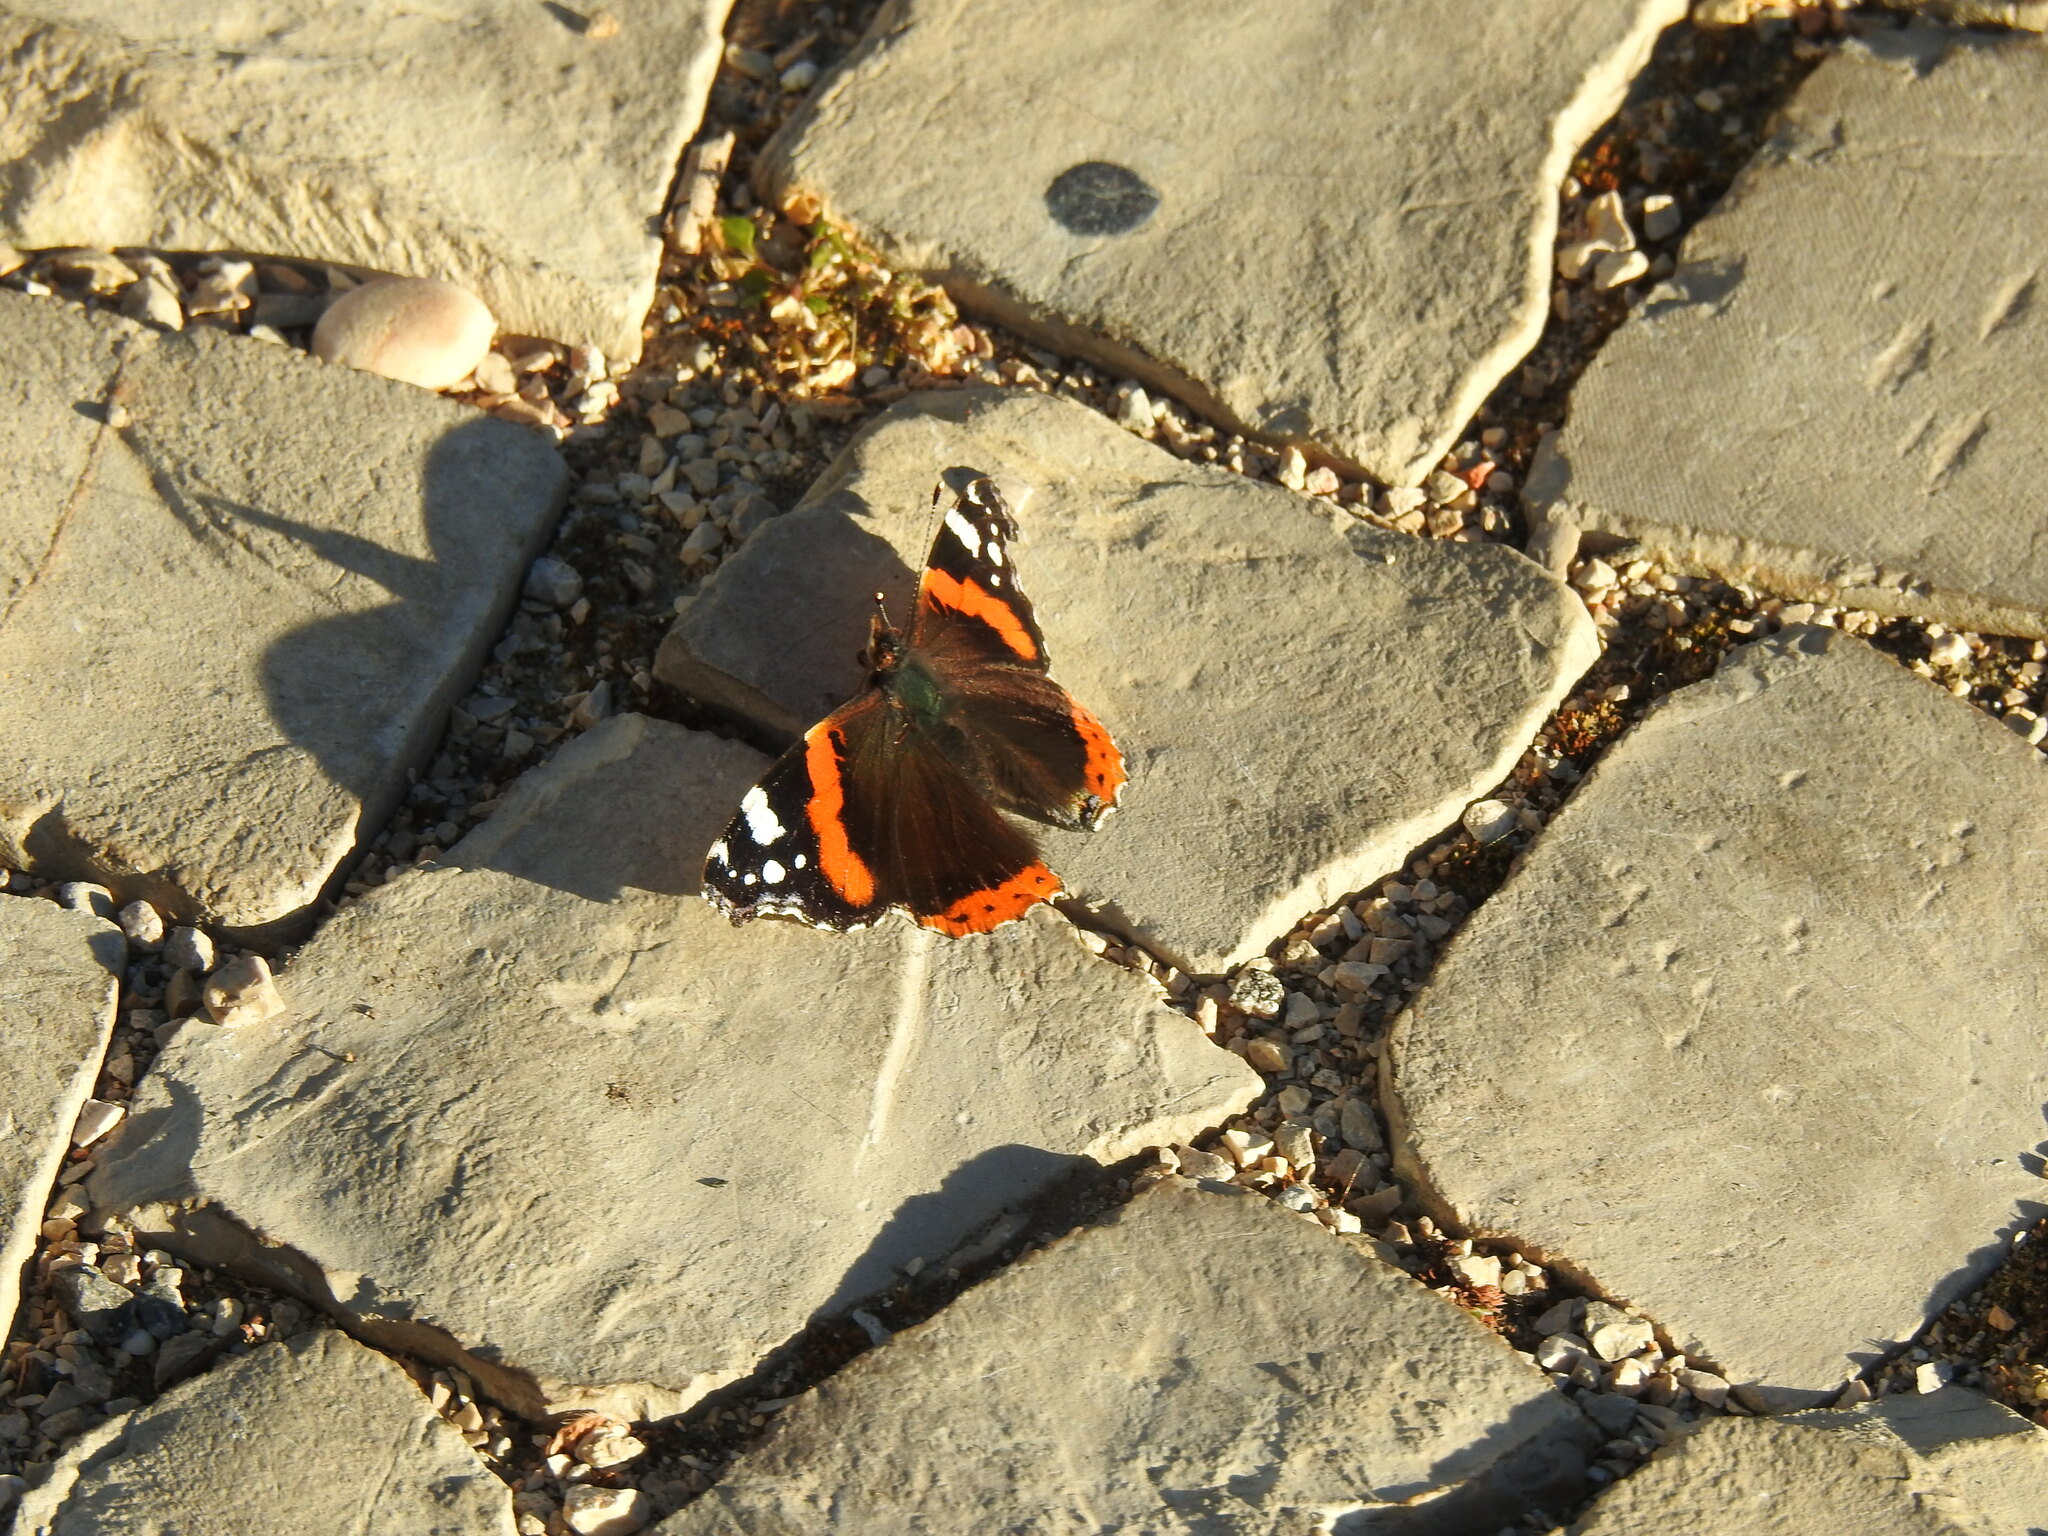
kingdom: Animalia
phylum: Arthropoda
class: Insecta
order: Lepidoptera
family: Nymphalidae
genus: Vanessa
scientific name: Vanessa atalanta
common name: Red admiral
